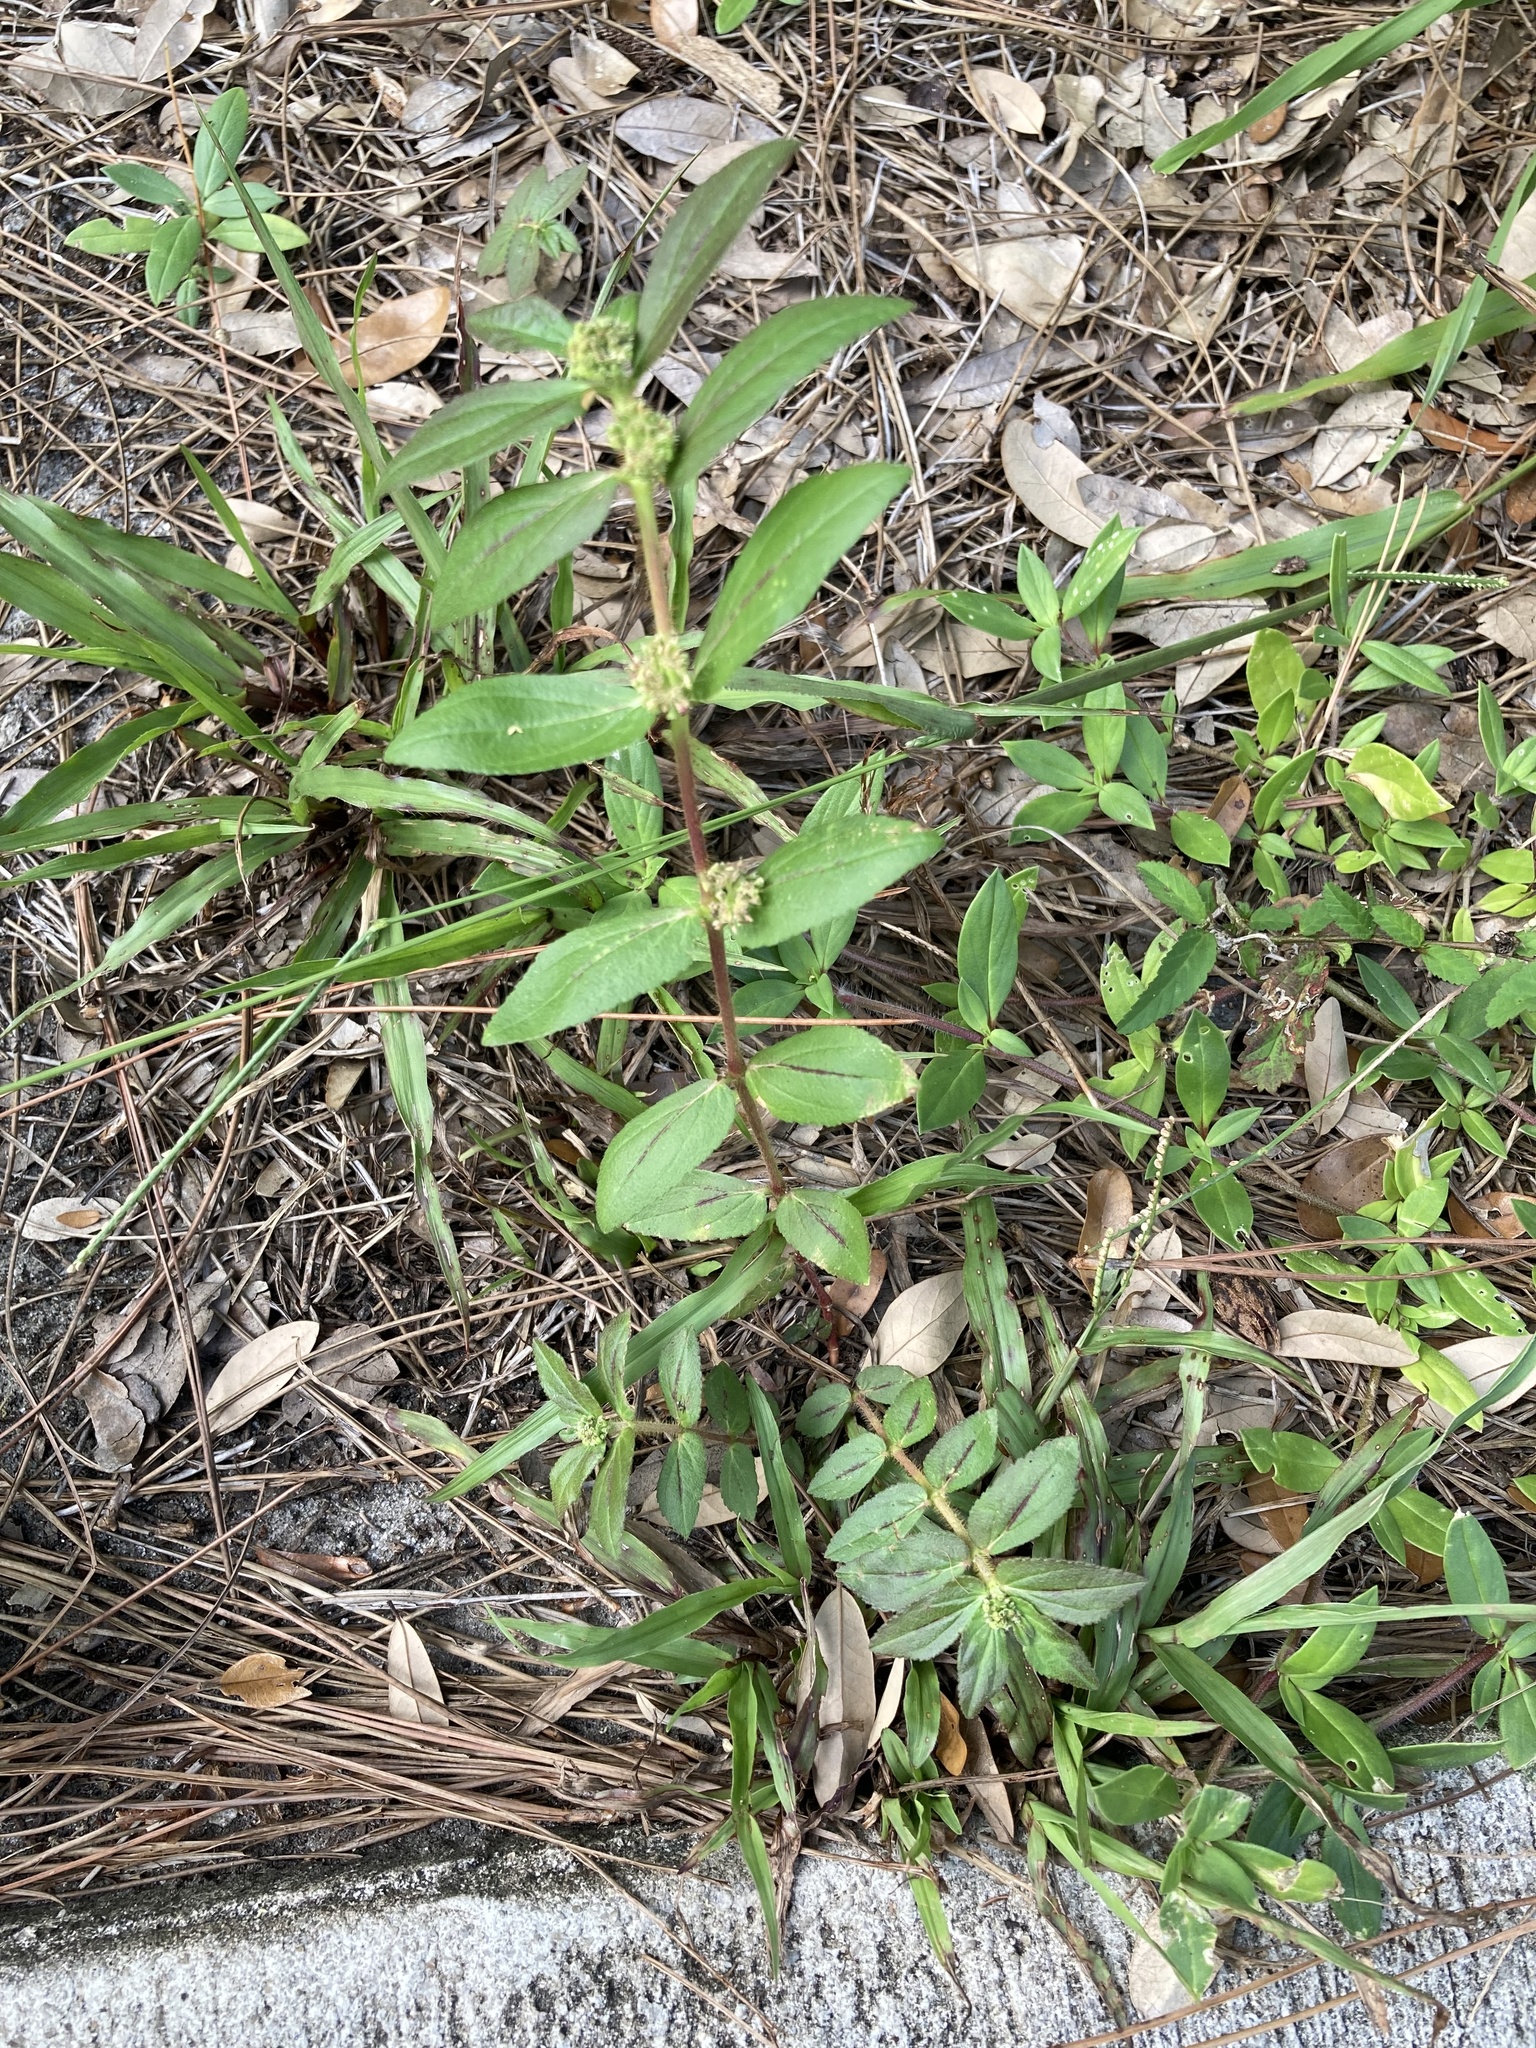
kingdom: Plantae
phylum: Tracheophyta
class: Magnoliopsida
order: Malpighiales
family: Euphorbiaceae
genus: Euphorbia
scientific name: Euphorbia hirta
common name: Pillpod sandmat
